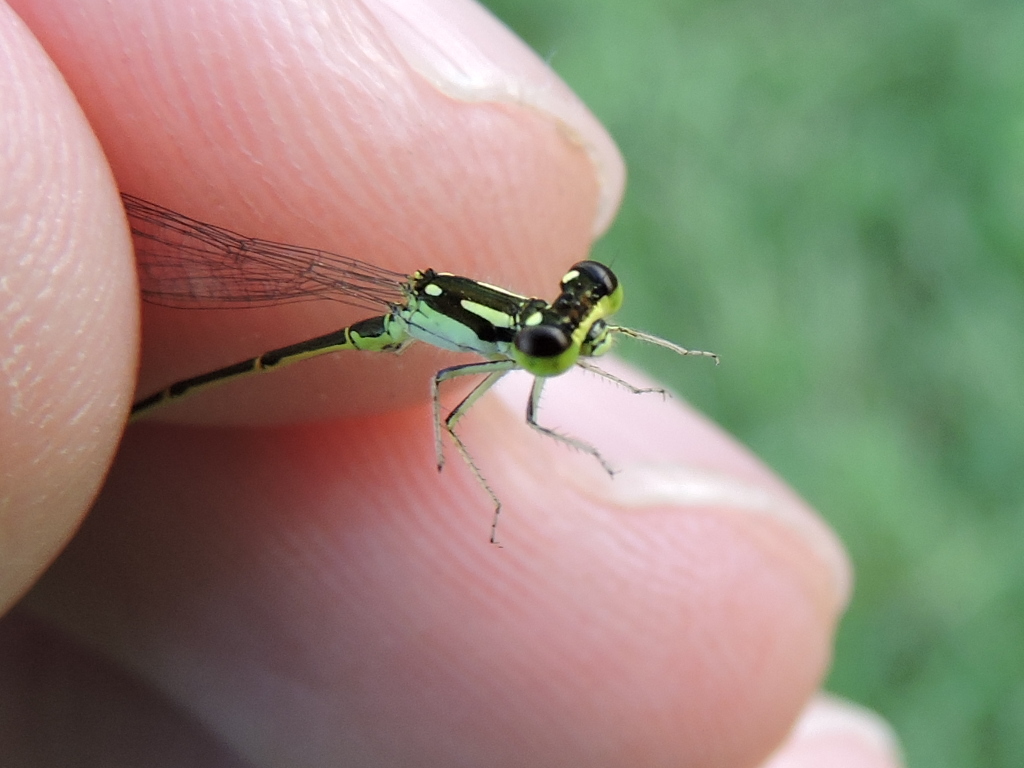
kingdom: Animalia
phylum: Arthropoda
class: Insecta
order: Odonata
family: Coenagrionidae
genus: Ischnura
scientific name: Ischnura posita
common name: Fragile forktail
